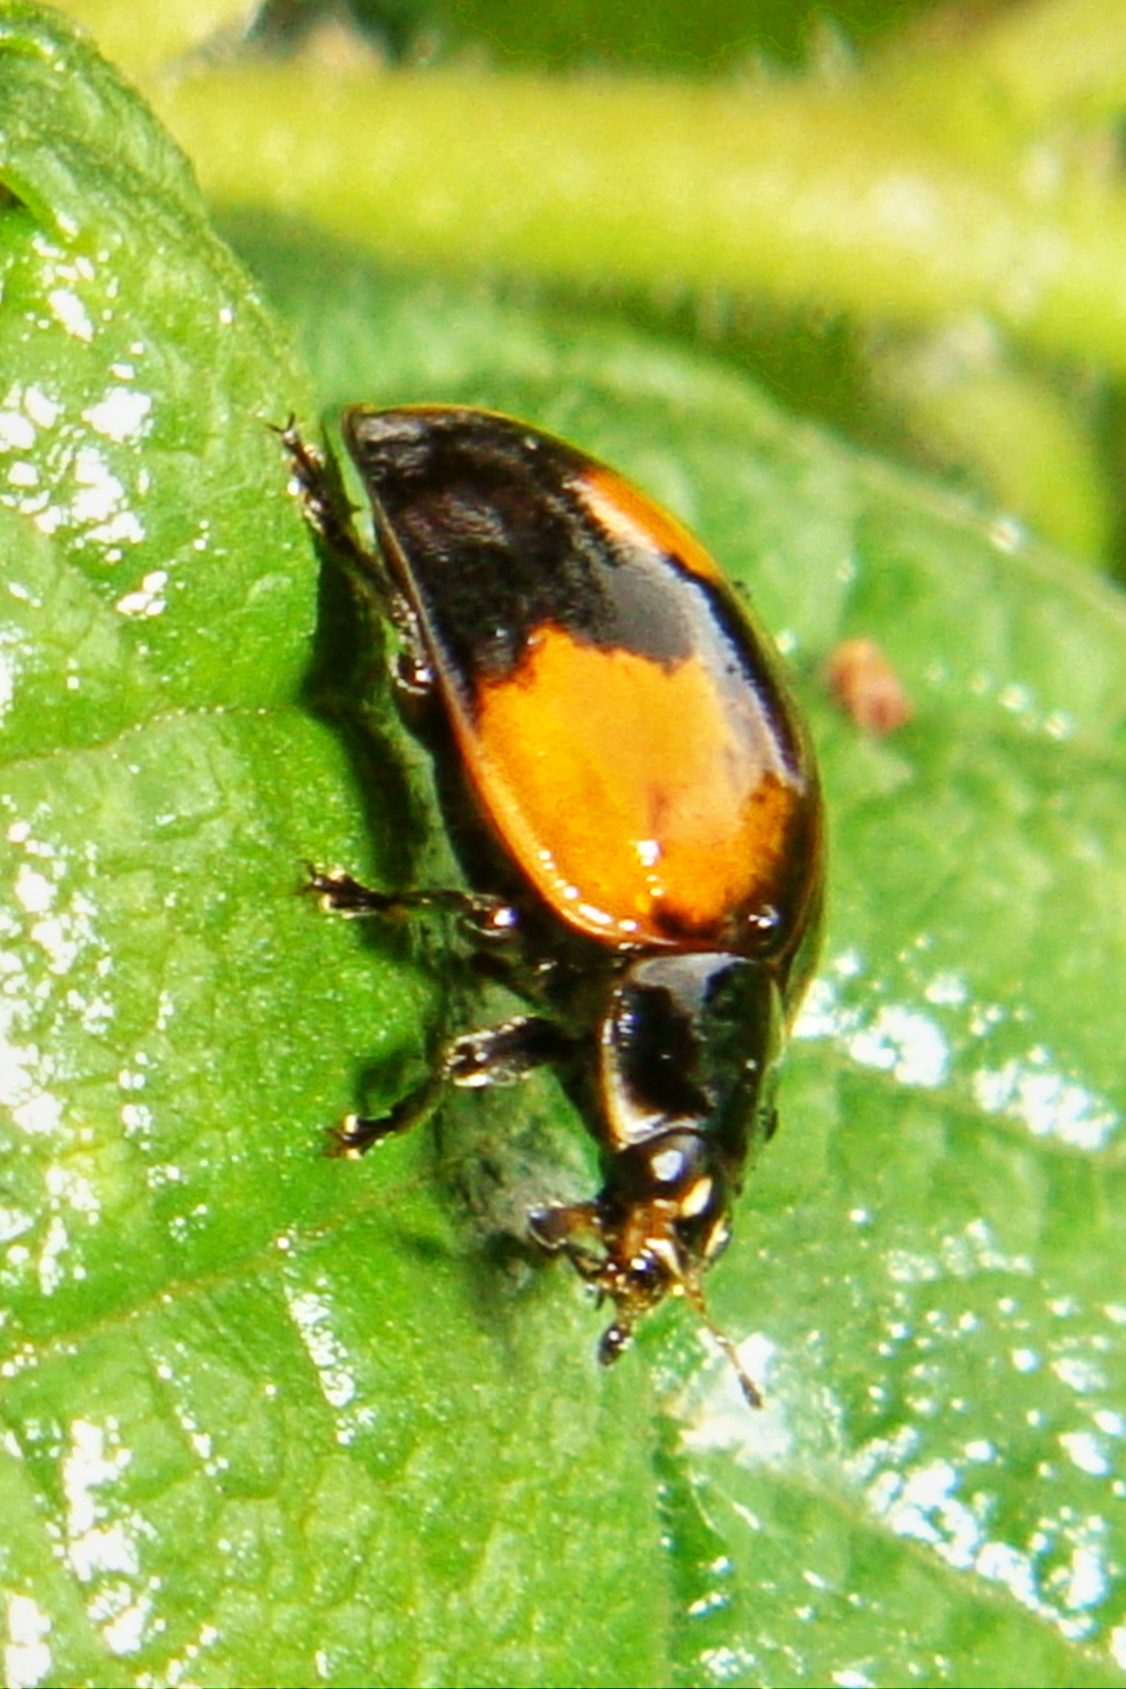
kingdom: Animalia
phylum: Arthropoda
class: Insecta
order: Coleoptera
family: Coccinellidae
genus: Adalia
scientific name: Adalia bipunctata
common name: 2-spot ladybird
